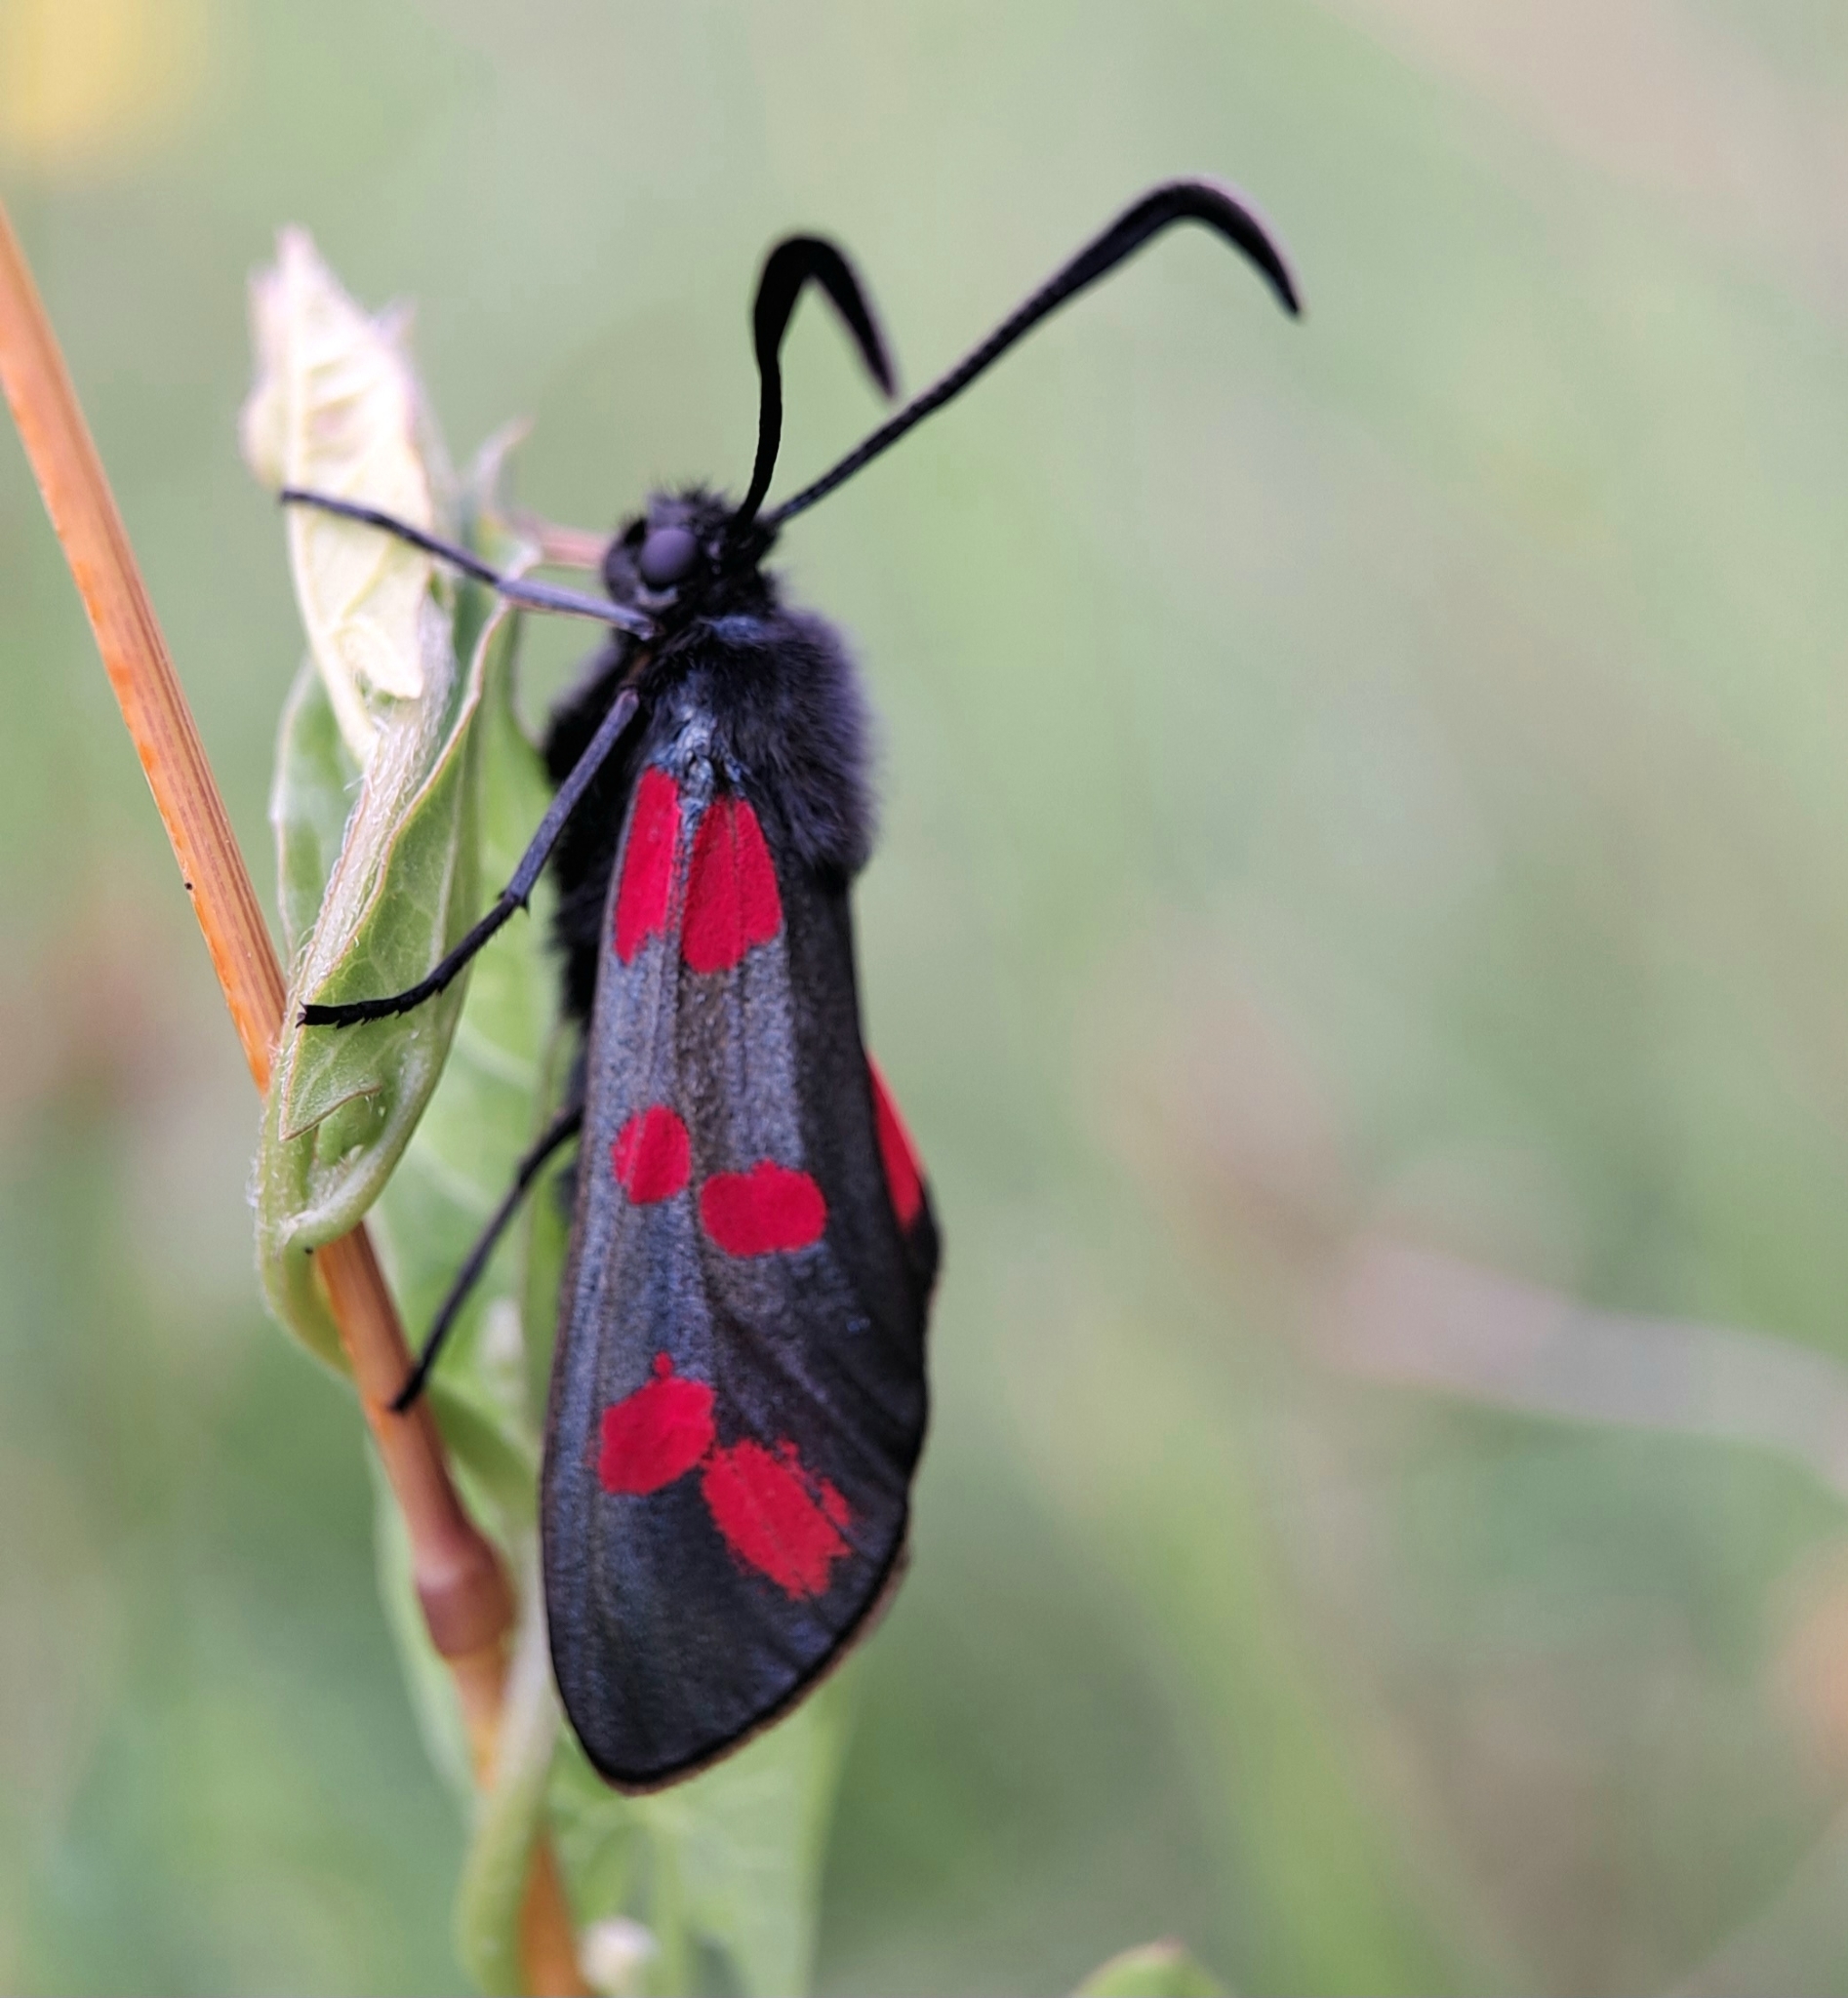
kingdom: Animalia
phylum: Arthropoda
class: Insecta
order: Lepidoptera
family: Zygaenidae
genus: Zygaena
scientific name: Zygaena filipendulae
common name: Six-spot burnet
